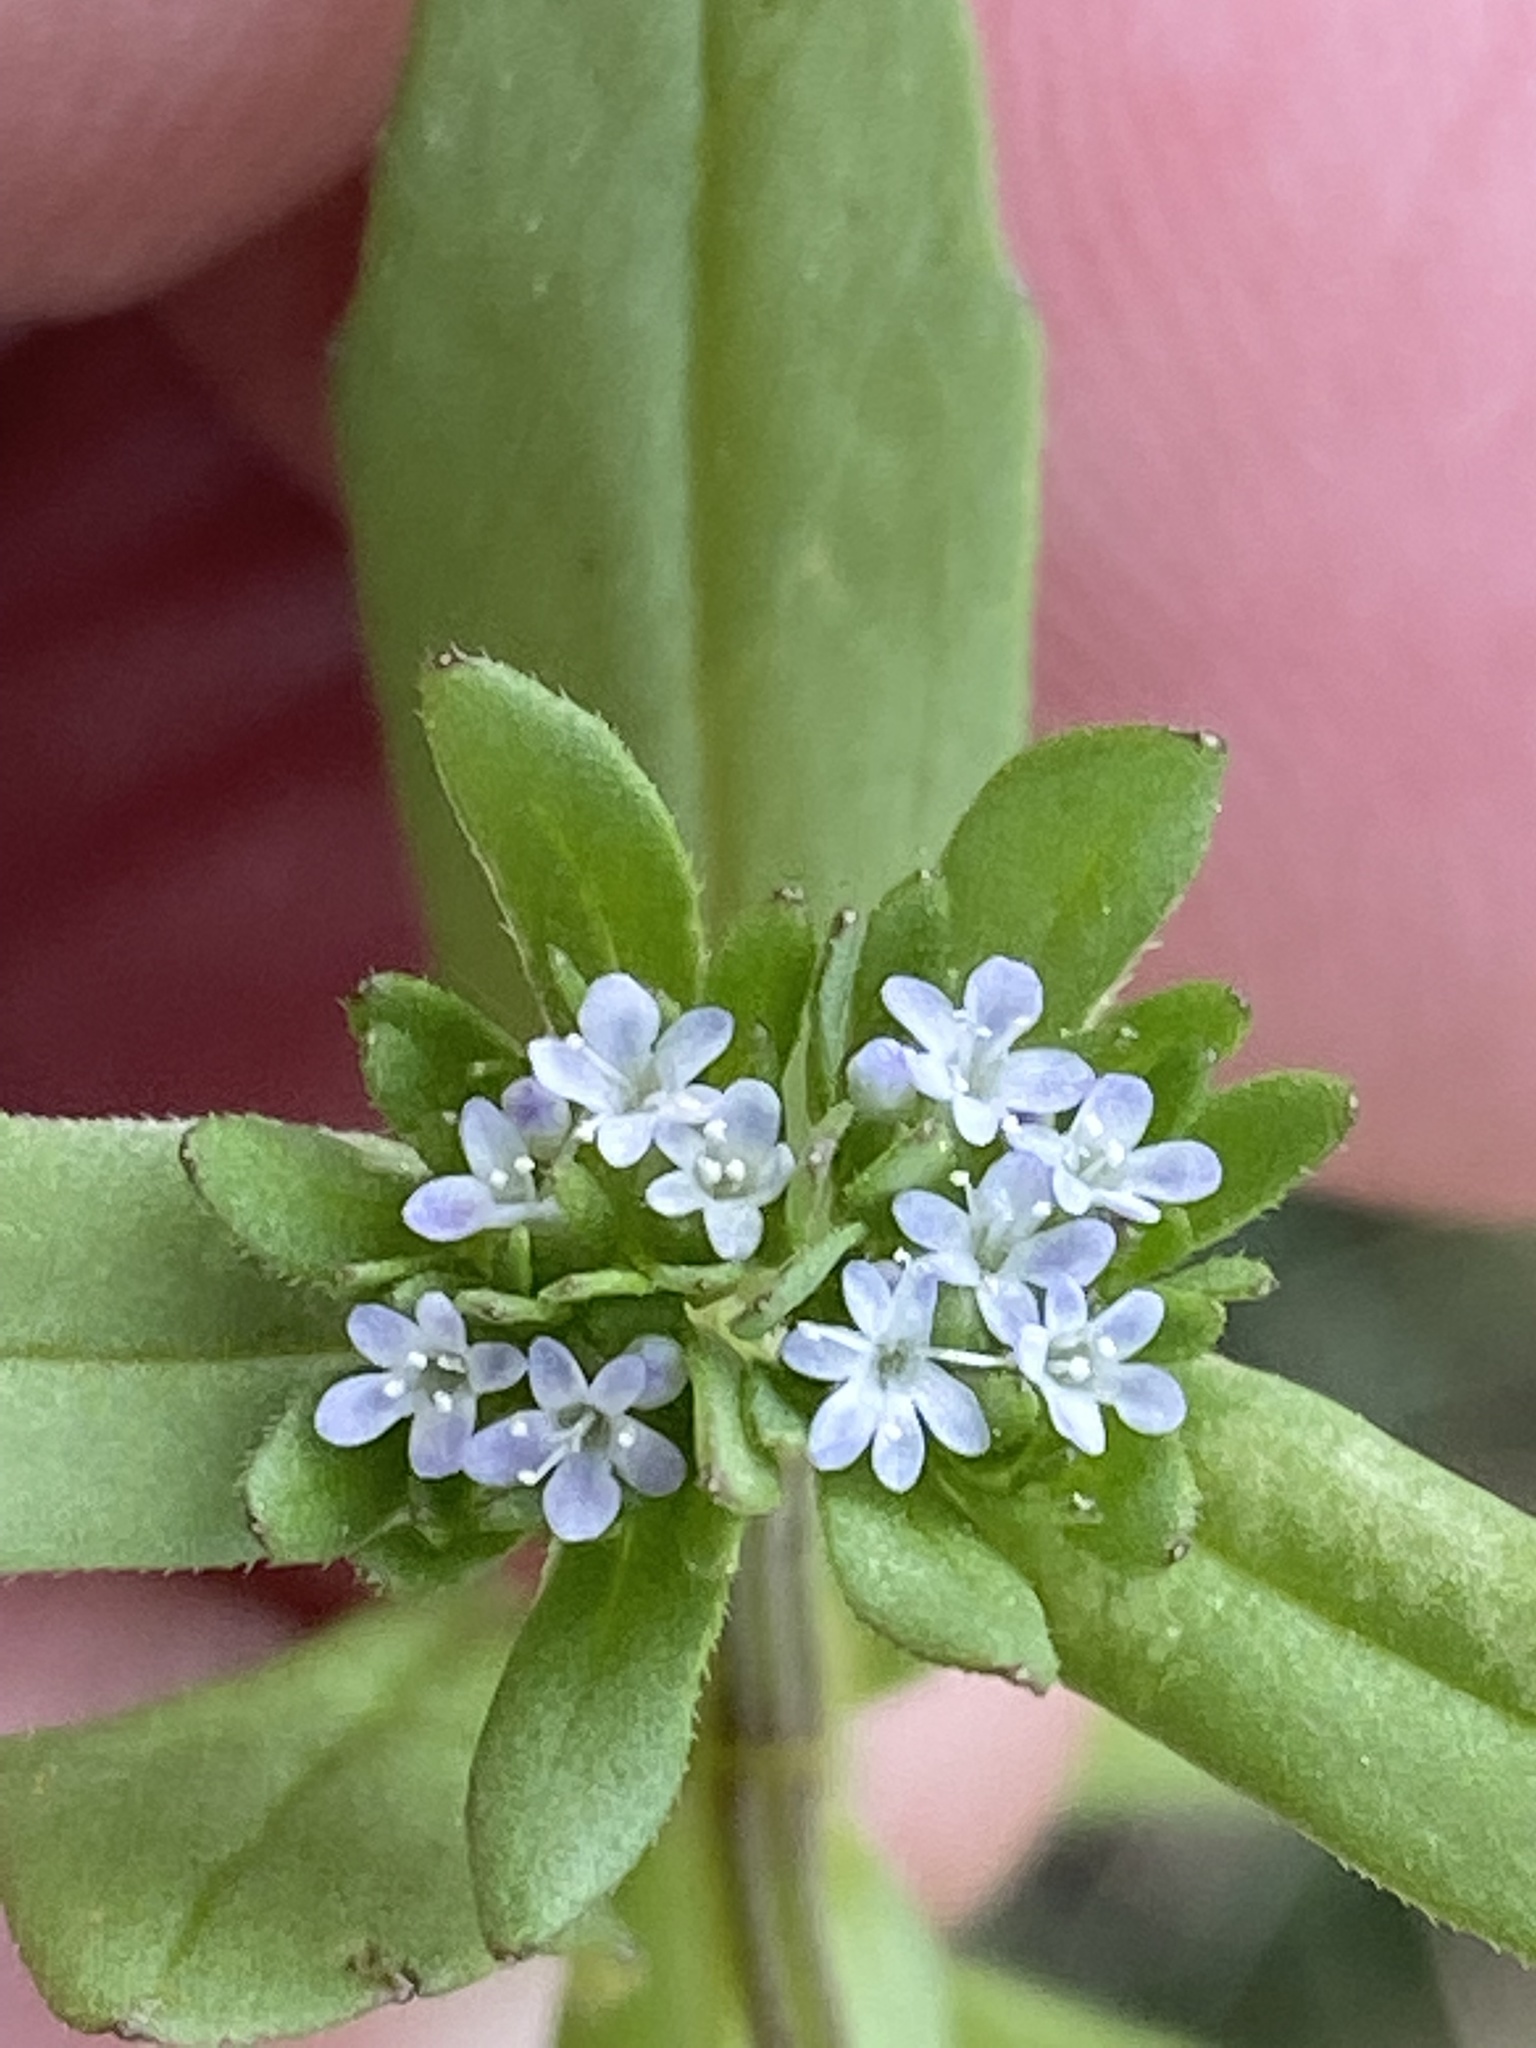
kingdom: Plantae
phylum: Tracheophyta
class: Magnoliopsida
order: Dipsacales
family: Caprifoliaceae
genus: Valerianella
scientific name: Valerianella locusta
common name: Common cornsalad
